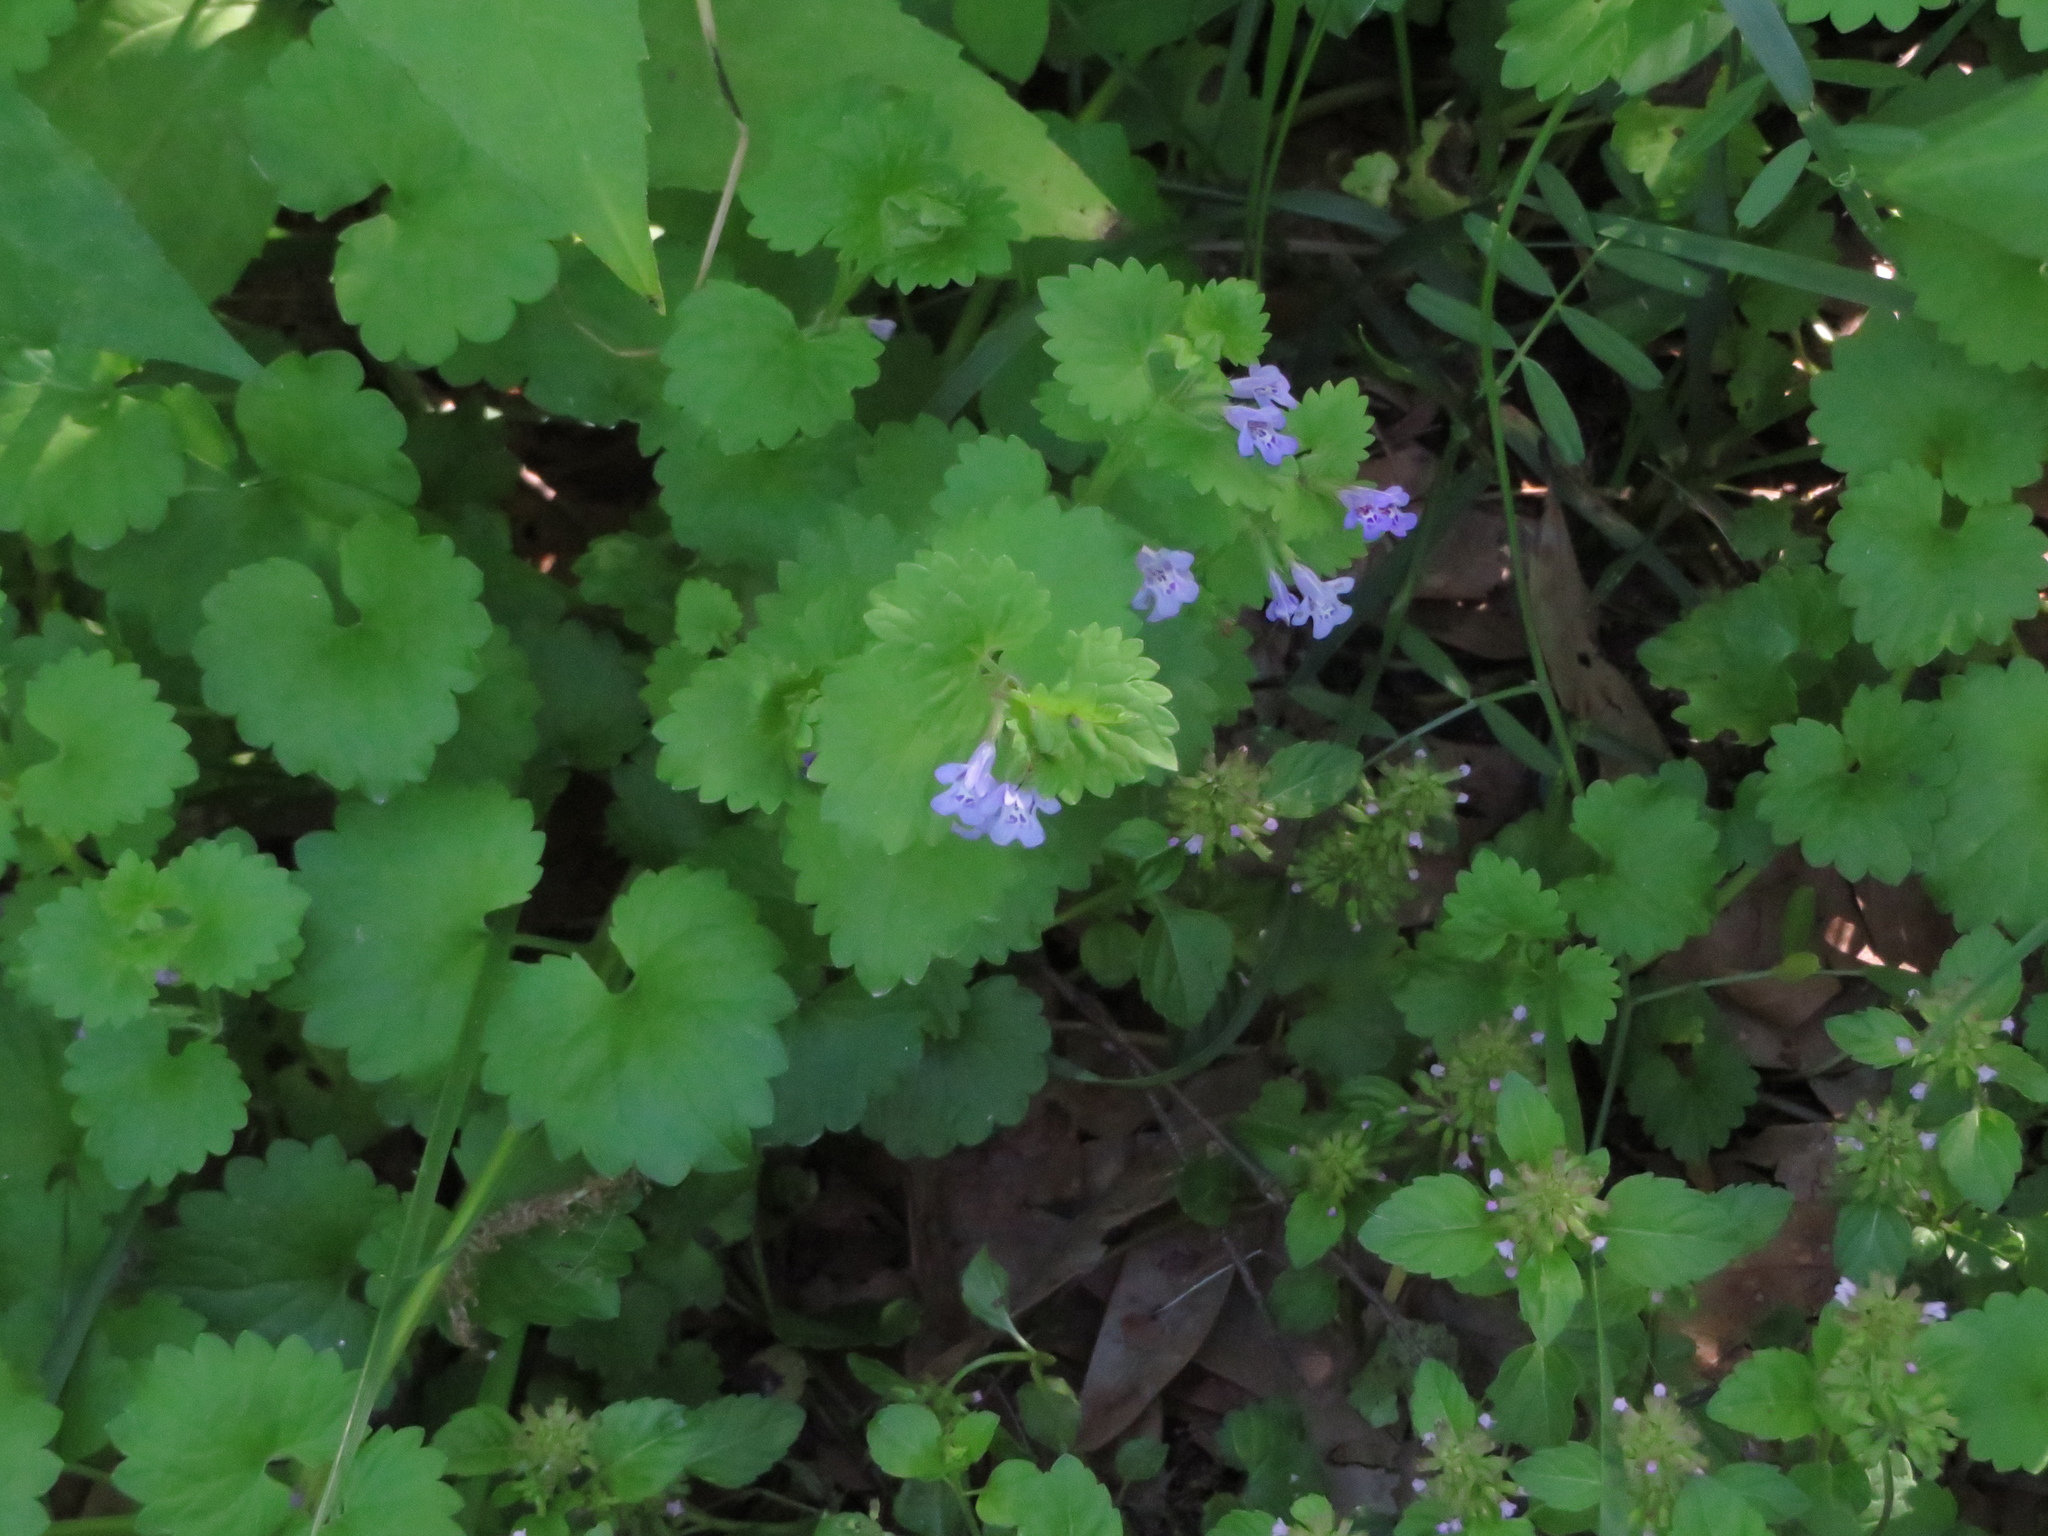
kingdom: Plantae
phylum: Tracheophyta
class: Magnoliopsida
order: Lamiales
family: Lamiaceae
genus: Glechoma
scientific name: Glechoma hederacea
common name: Ground ivy
